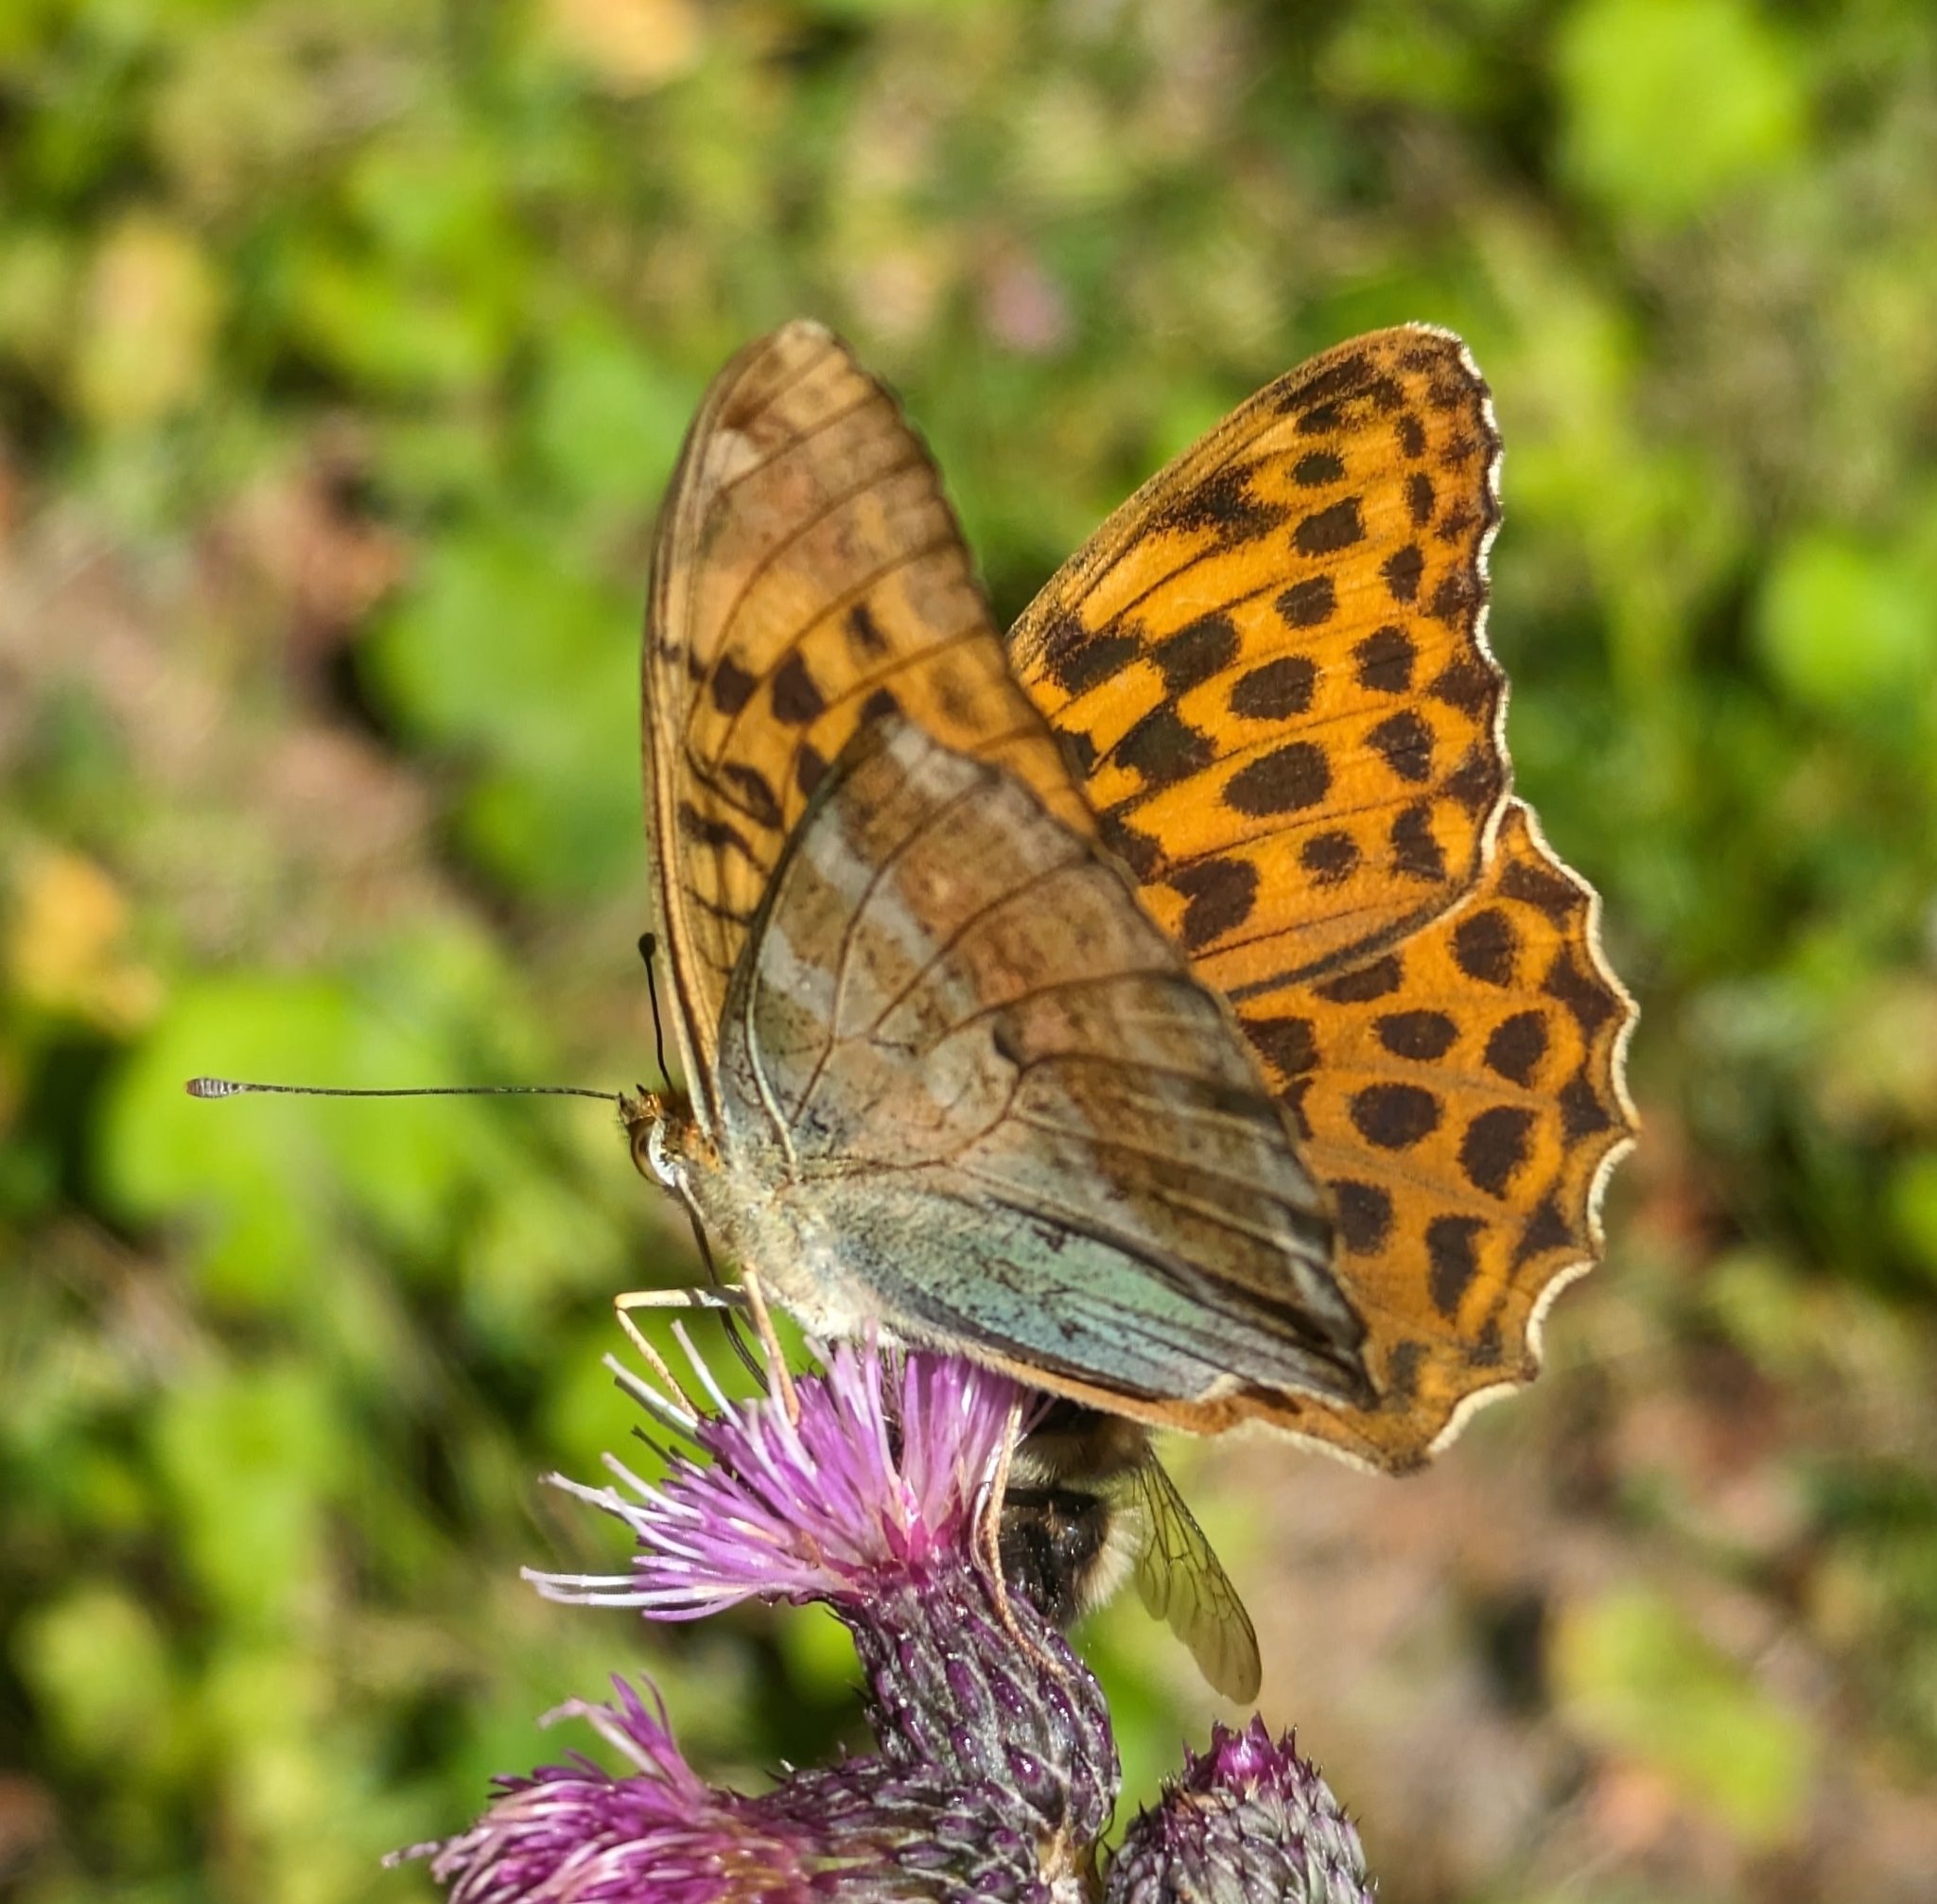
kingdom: Animalia
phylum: Arthropoda
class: Insecta
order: Lepidoptera
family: Nymphalidae
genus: Argynnis
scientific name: Argynnis paphia
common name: Silver-washed fritillary
